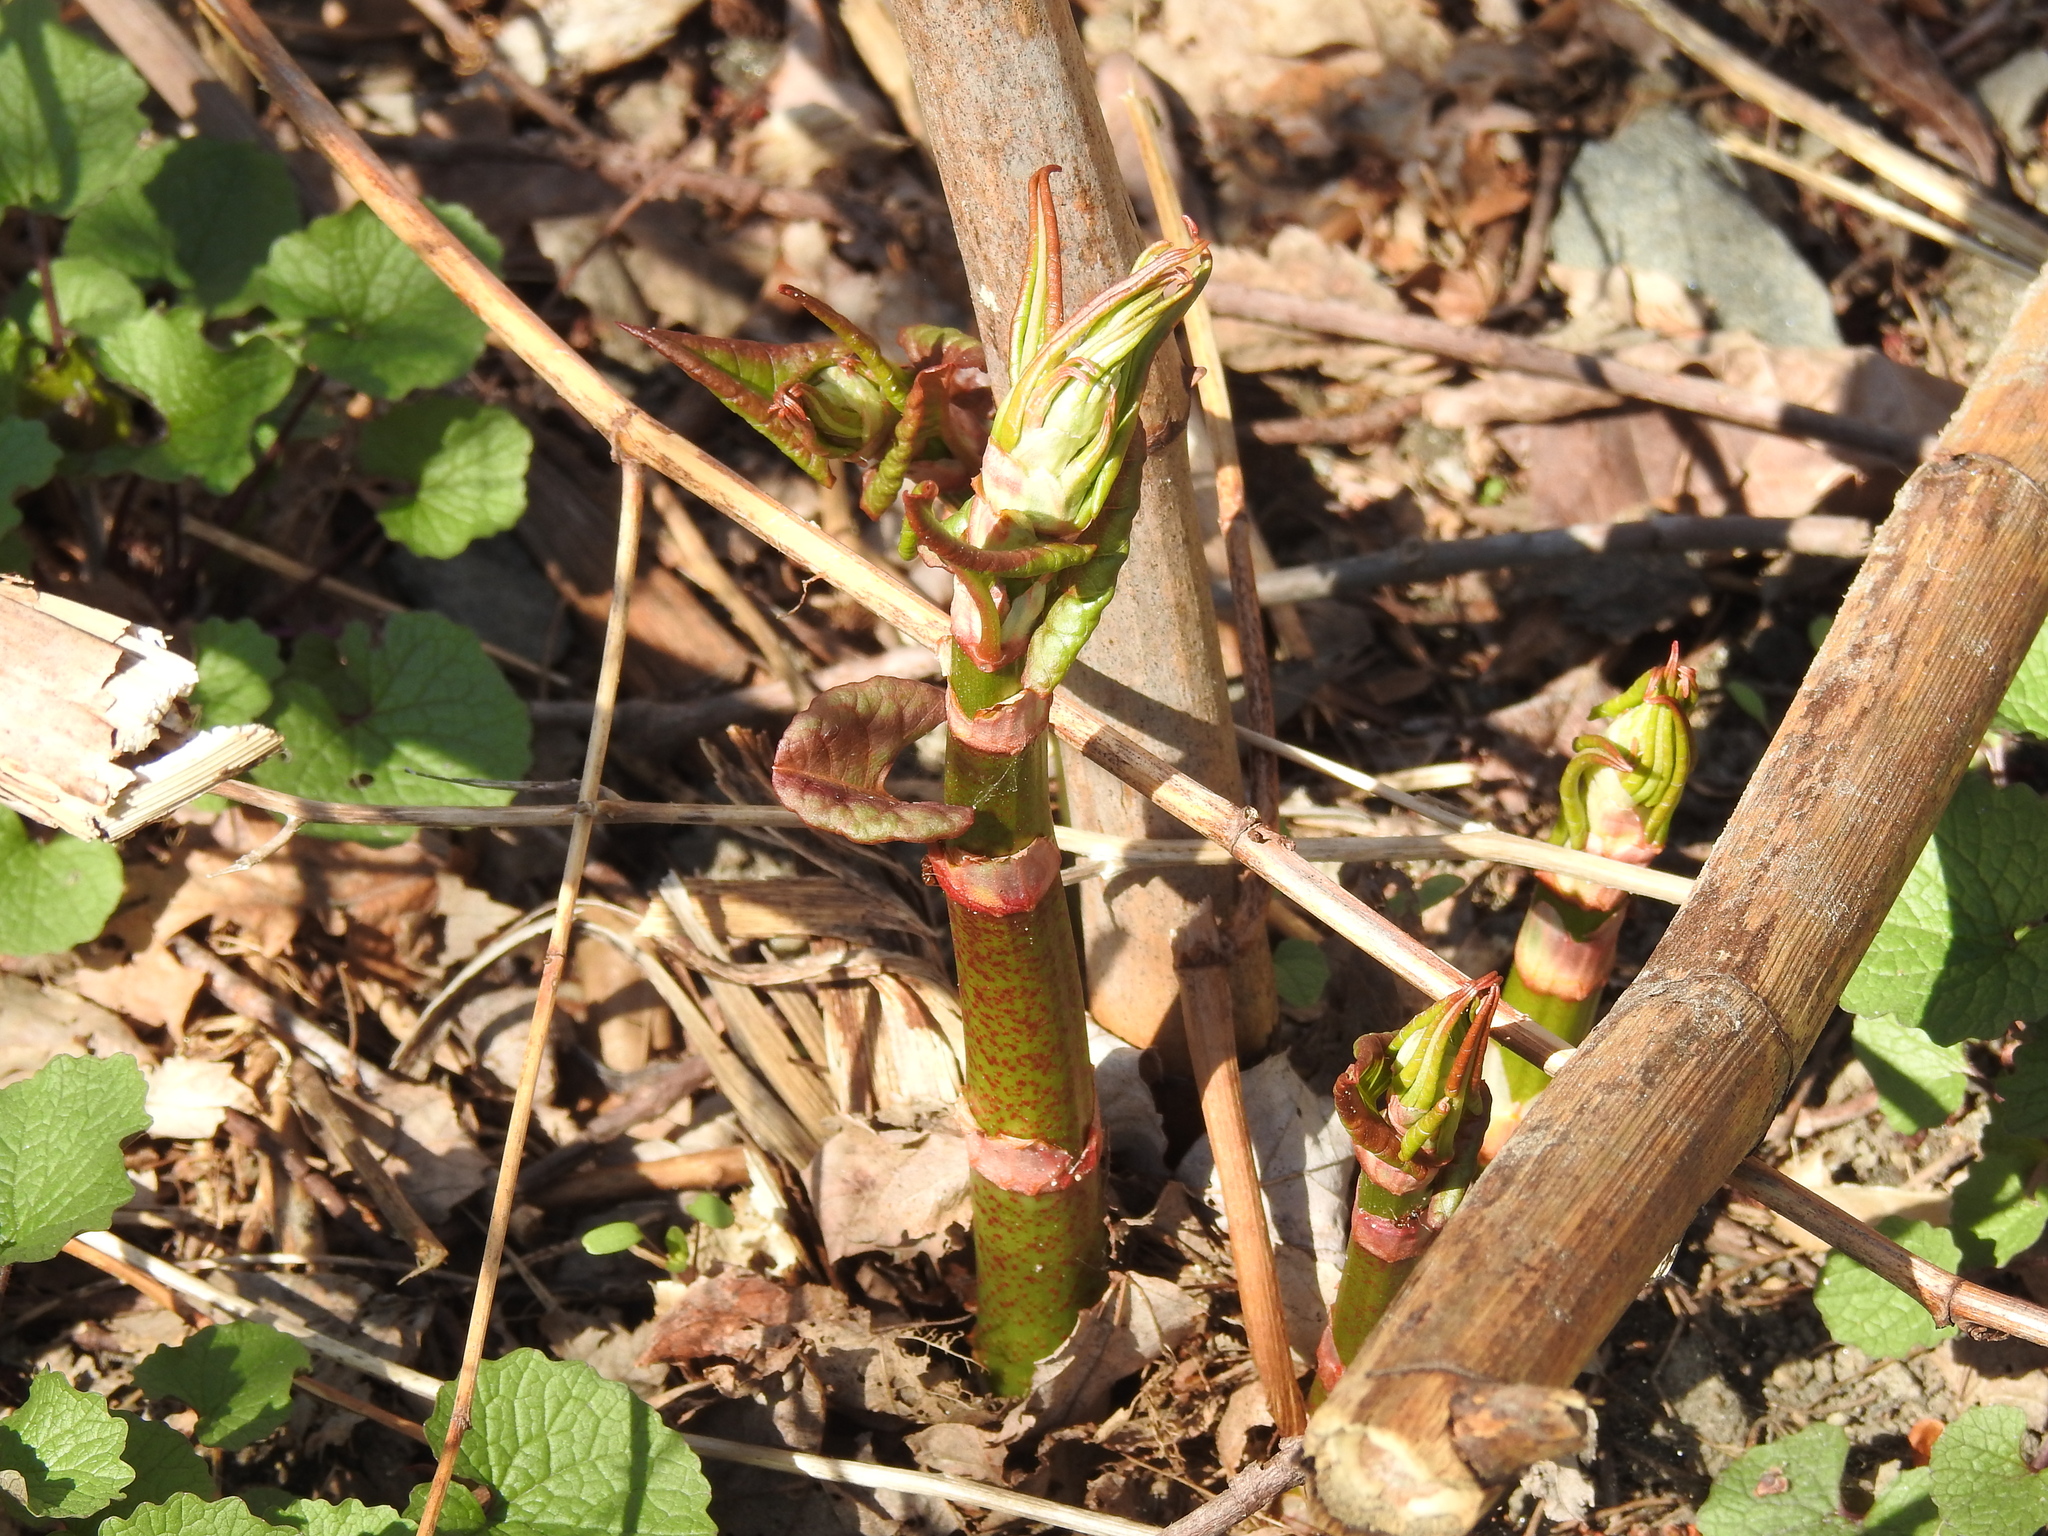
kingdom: Plantae
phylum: Tracheophyta
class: Magnoliopsida
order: Caryophyllales
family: Polygonaceae
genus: Reynoutria
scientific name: Reynoutria japonica
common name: Japanese knotweed
